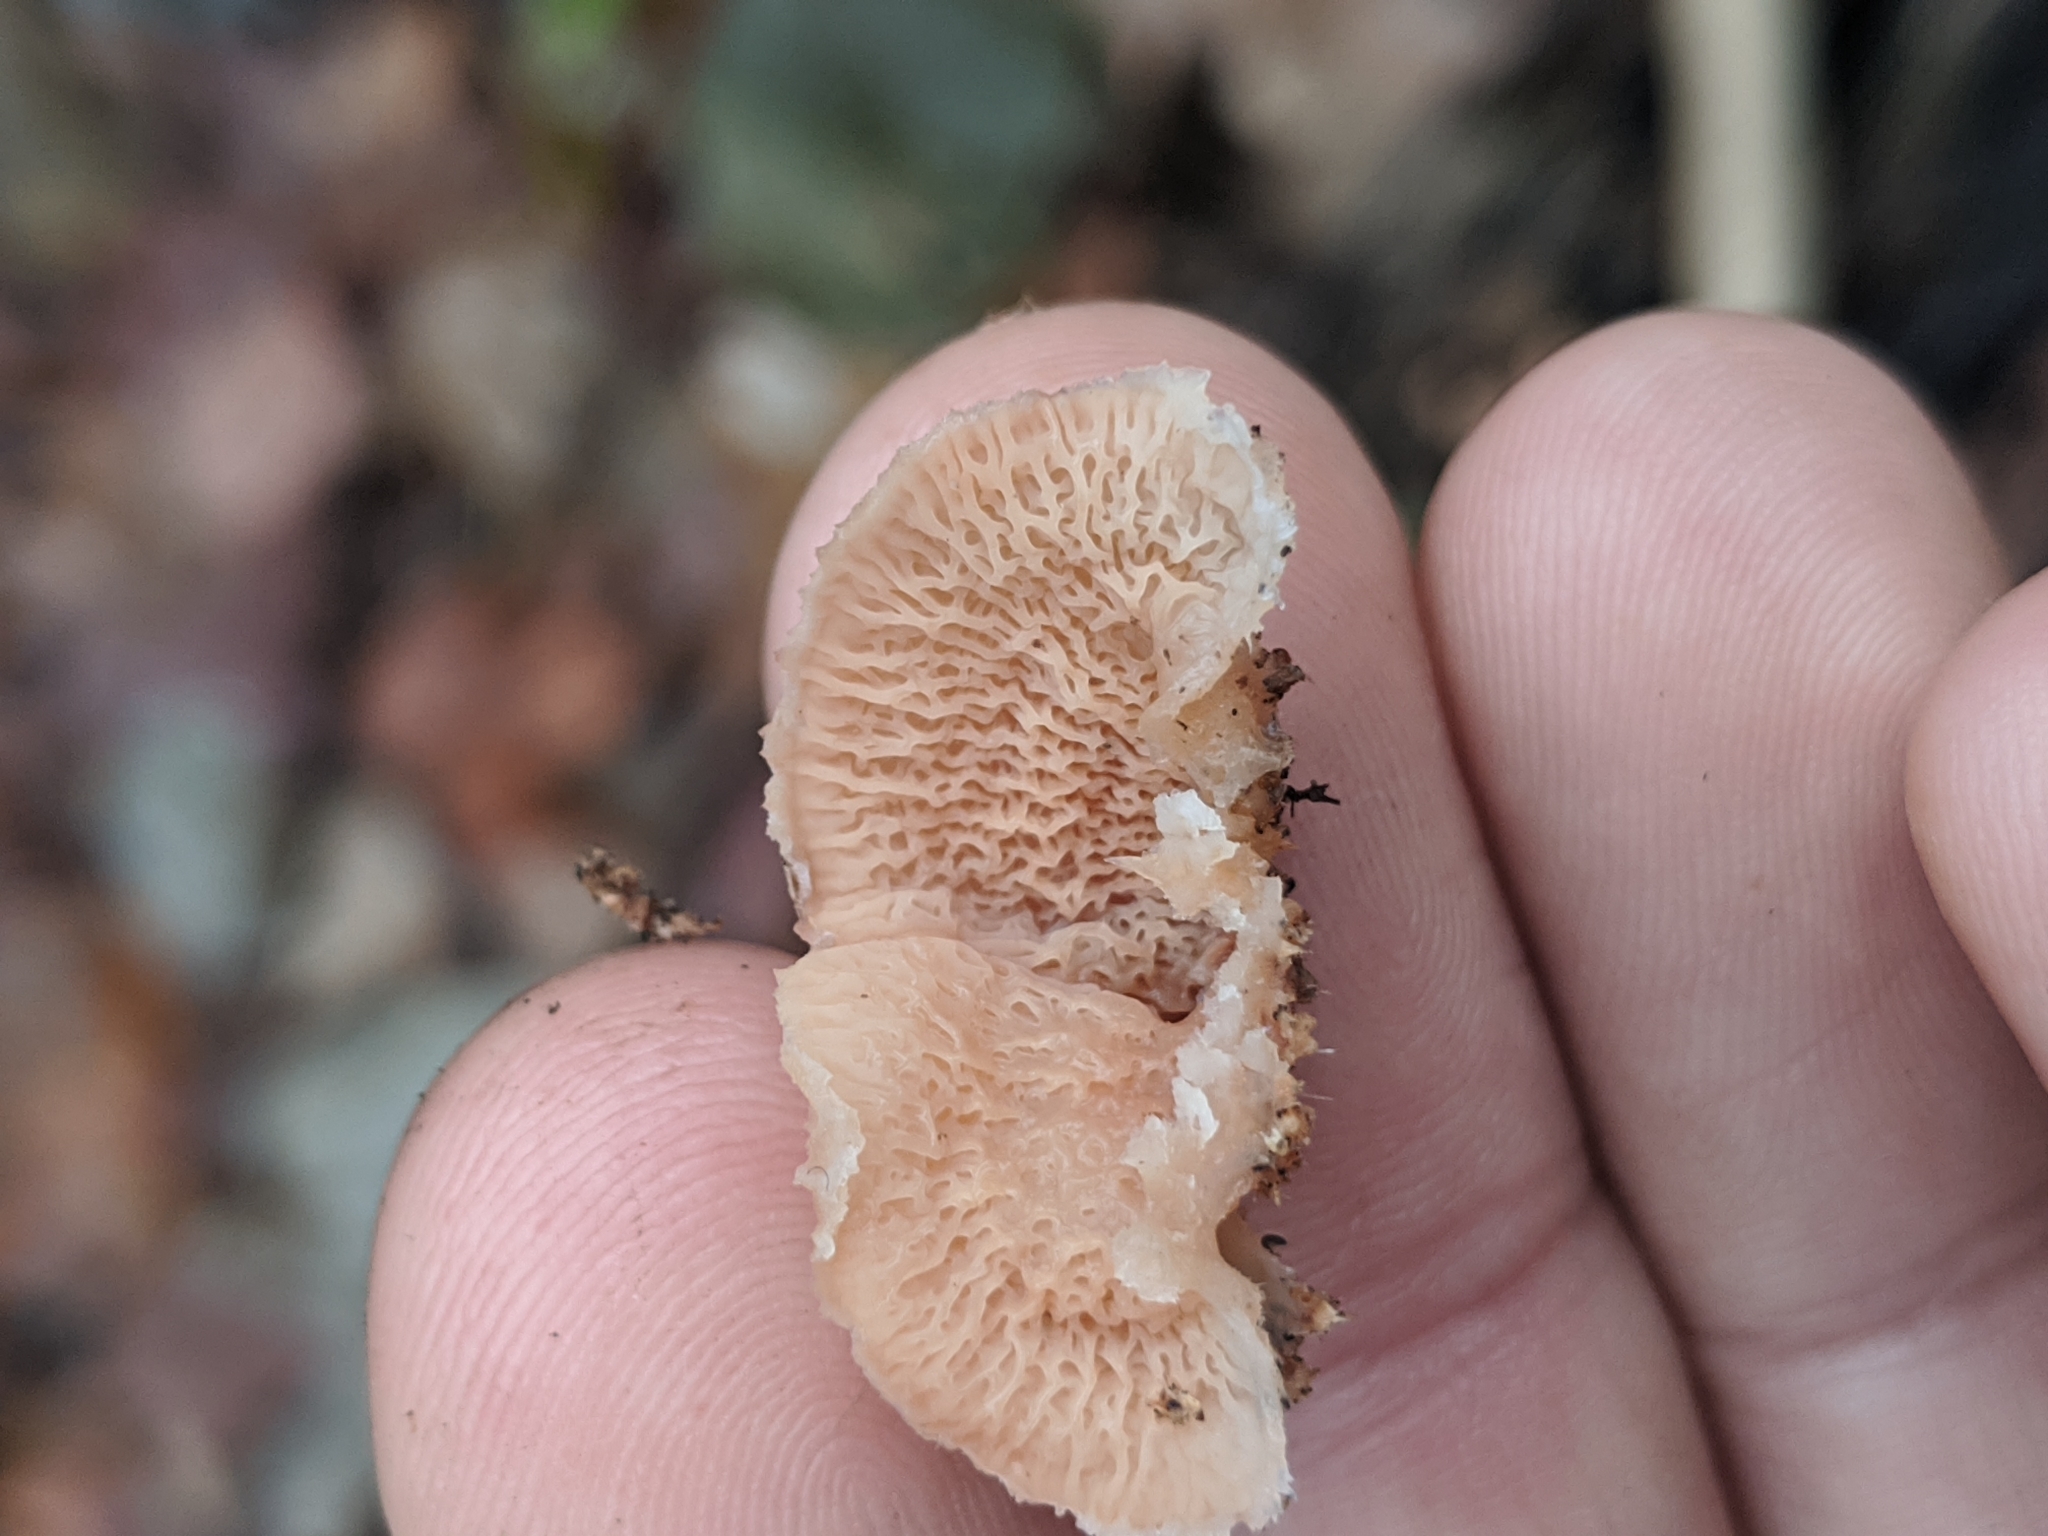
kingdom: Fungi
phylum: Basidiomycota
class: Agaricomycetes
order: Polyporales
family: Meruliaceae
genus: Phlebia
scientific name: Phlebia tremellosa
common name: Jelly rot
